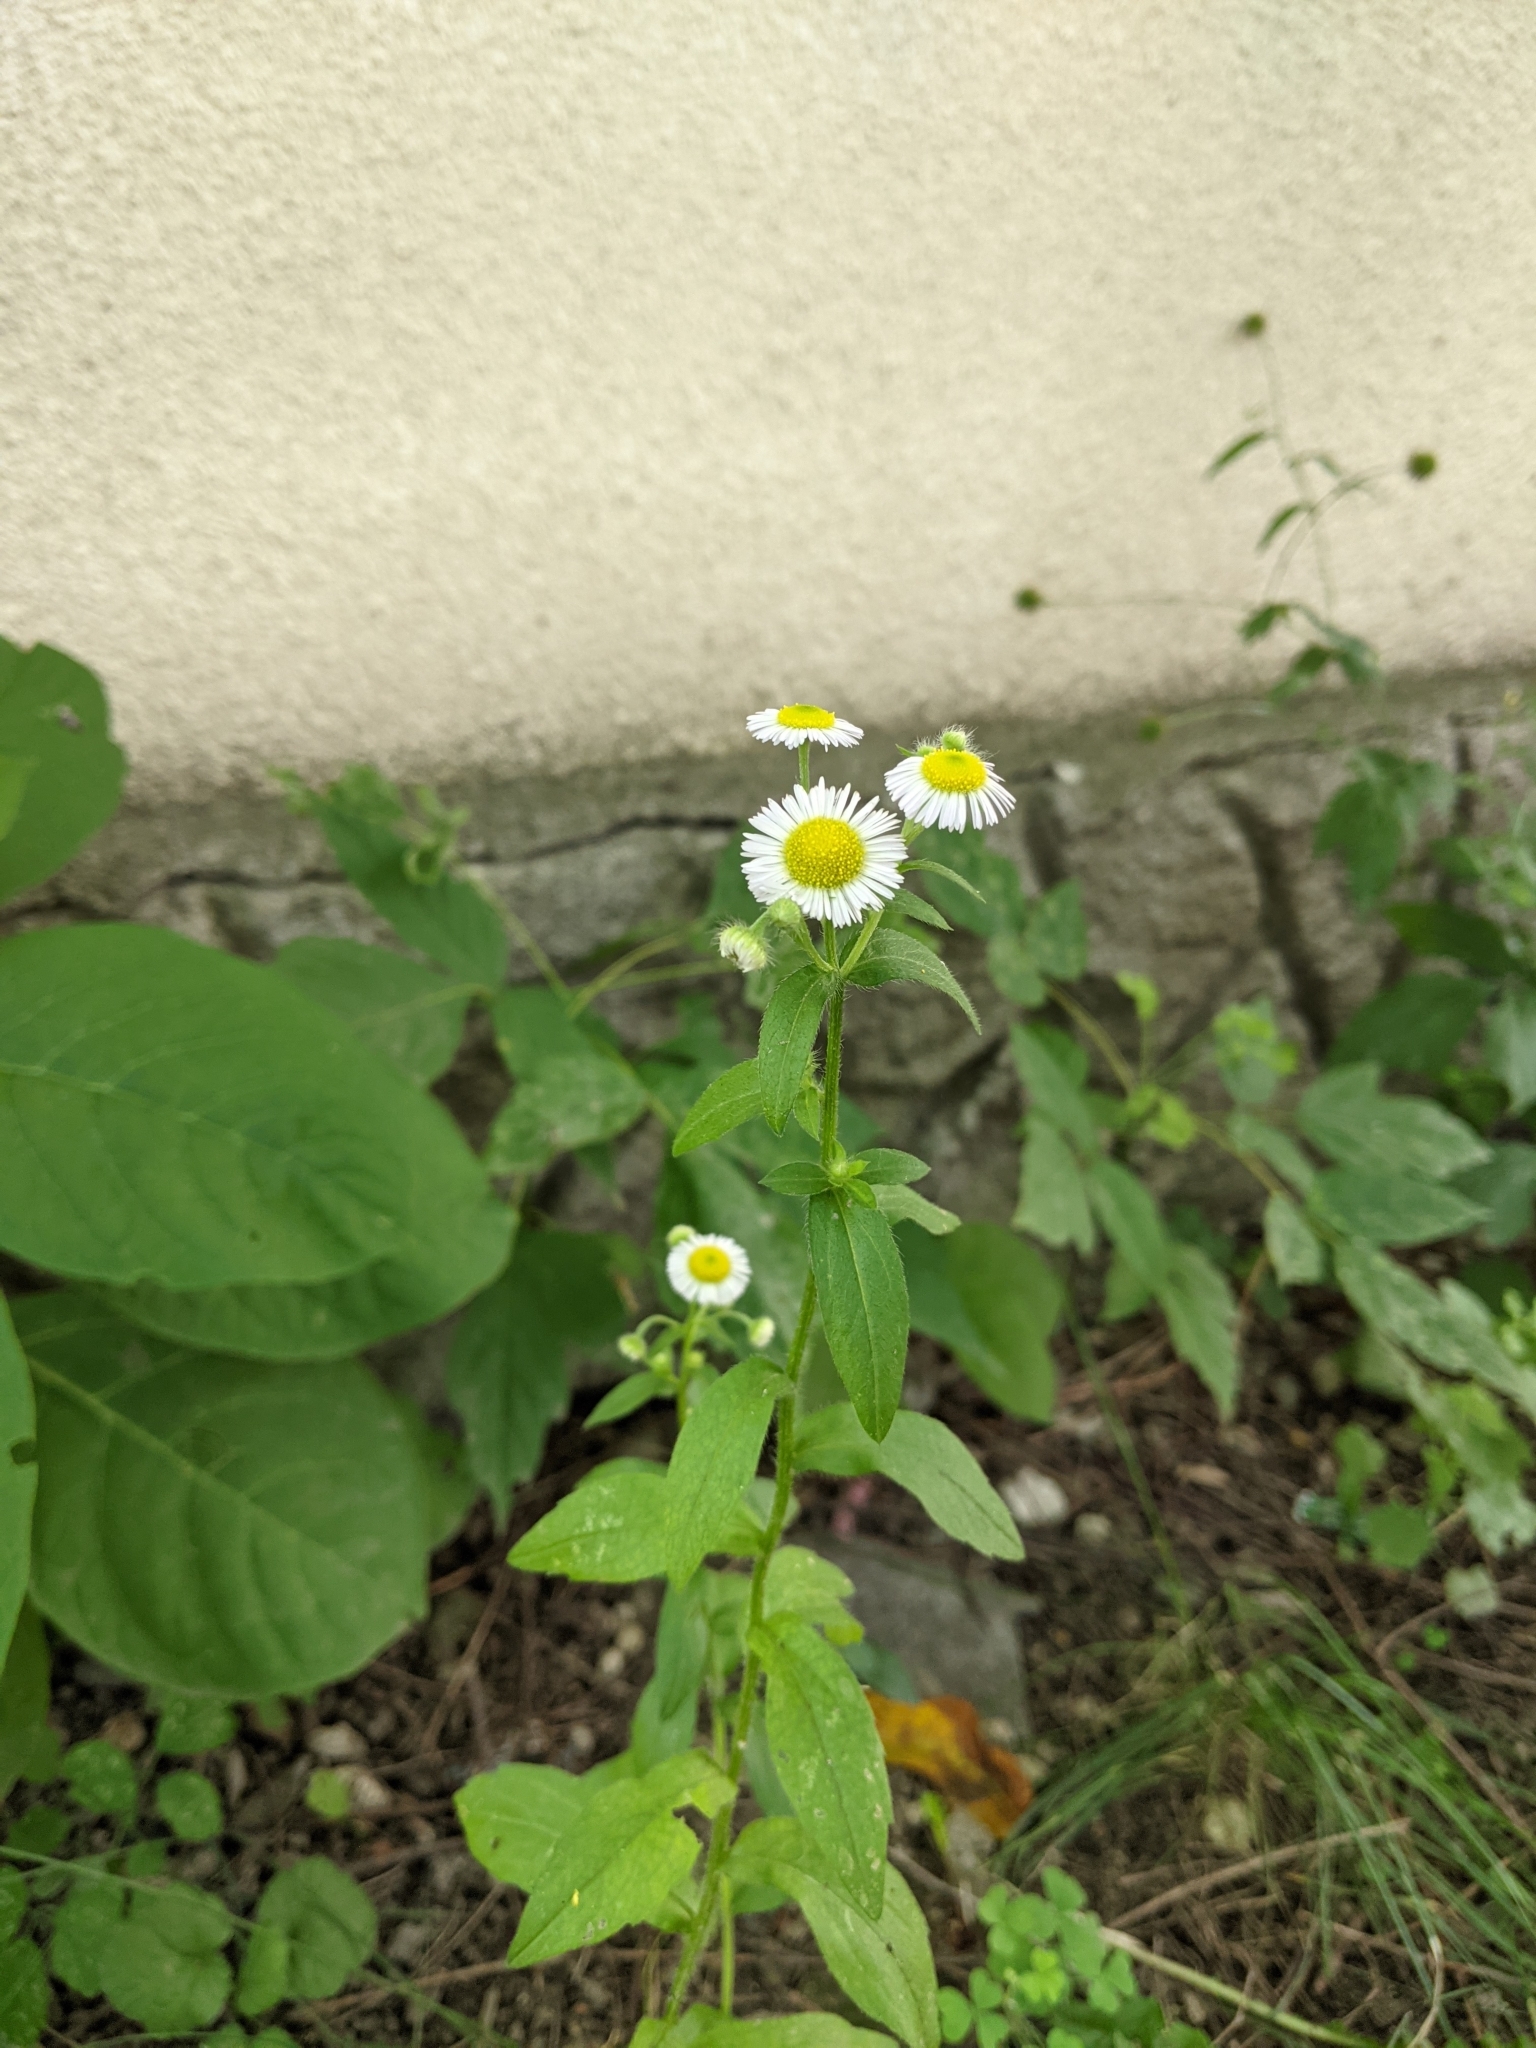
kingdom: Plantae
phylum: Tracheophyta
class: Magnoliopsida
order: Asterales
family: Asteraceae
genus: Erigeron
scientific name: Erigeron annuus
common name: Tall fleabane
